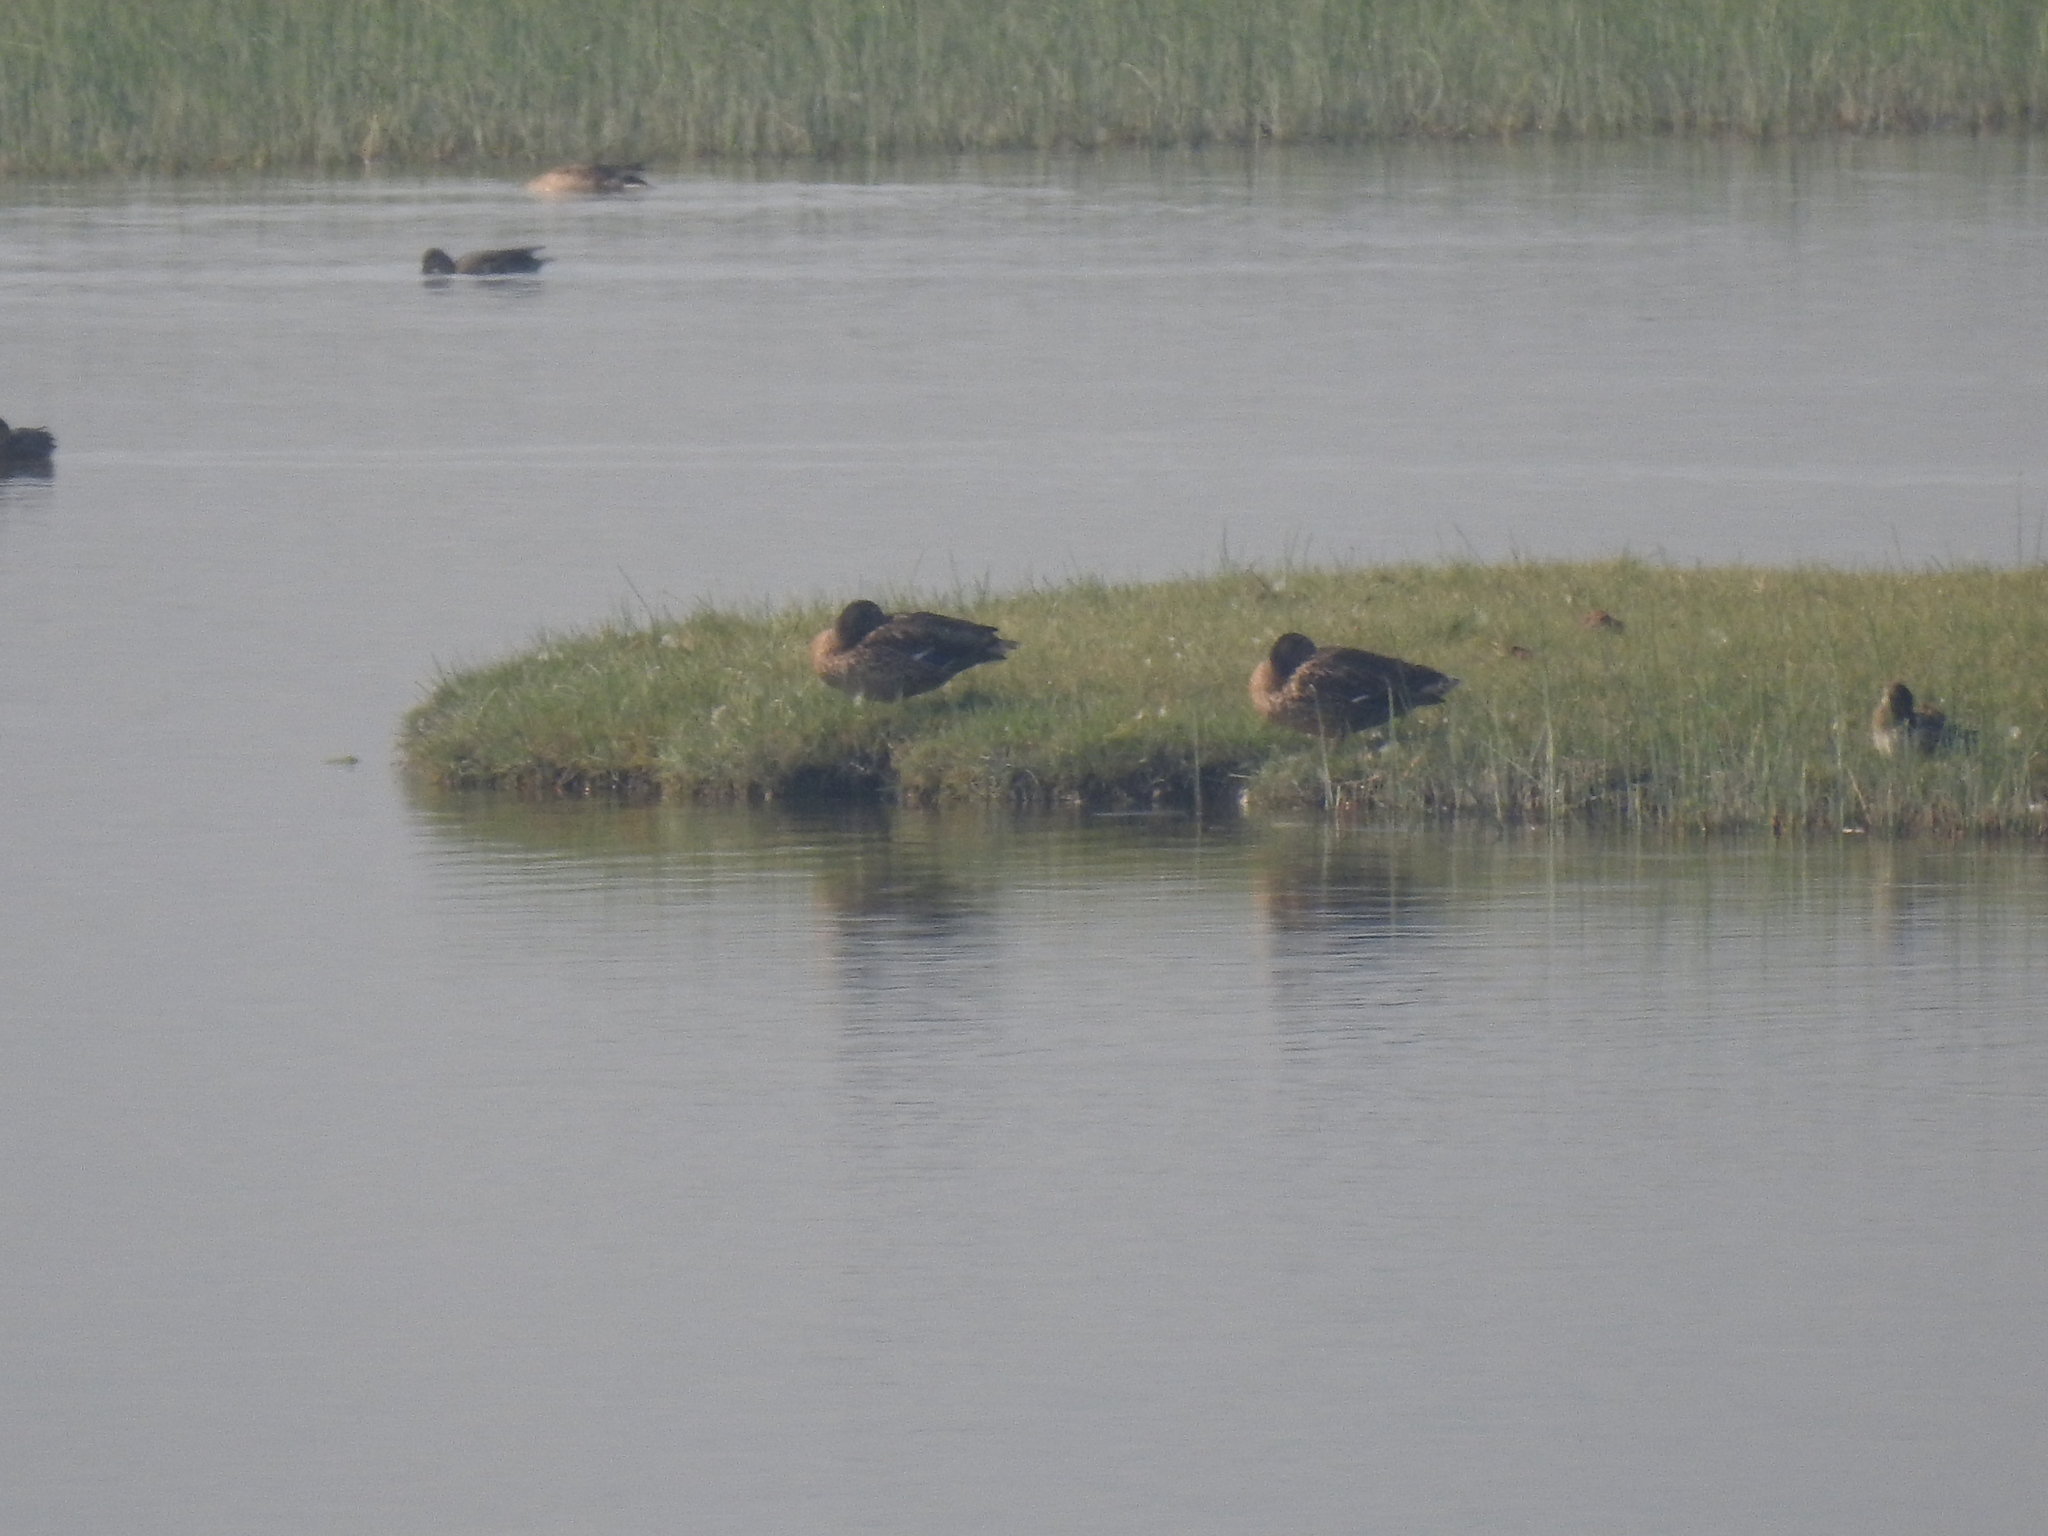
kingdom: Animalia
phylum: Chordata
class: Aves
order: Anseriformes
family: Anatidae
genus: Anas
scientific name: Anas platyrhynchos
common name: Mallard
